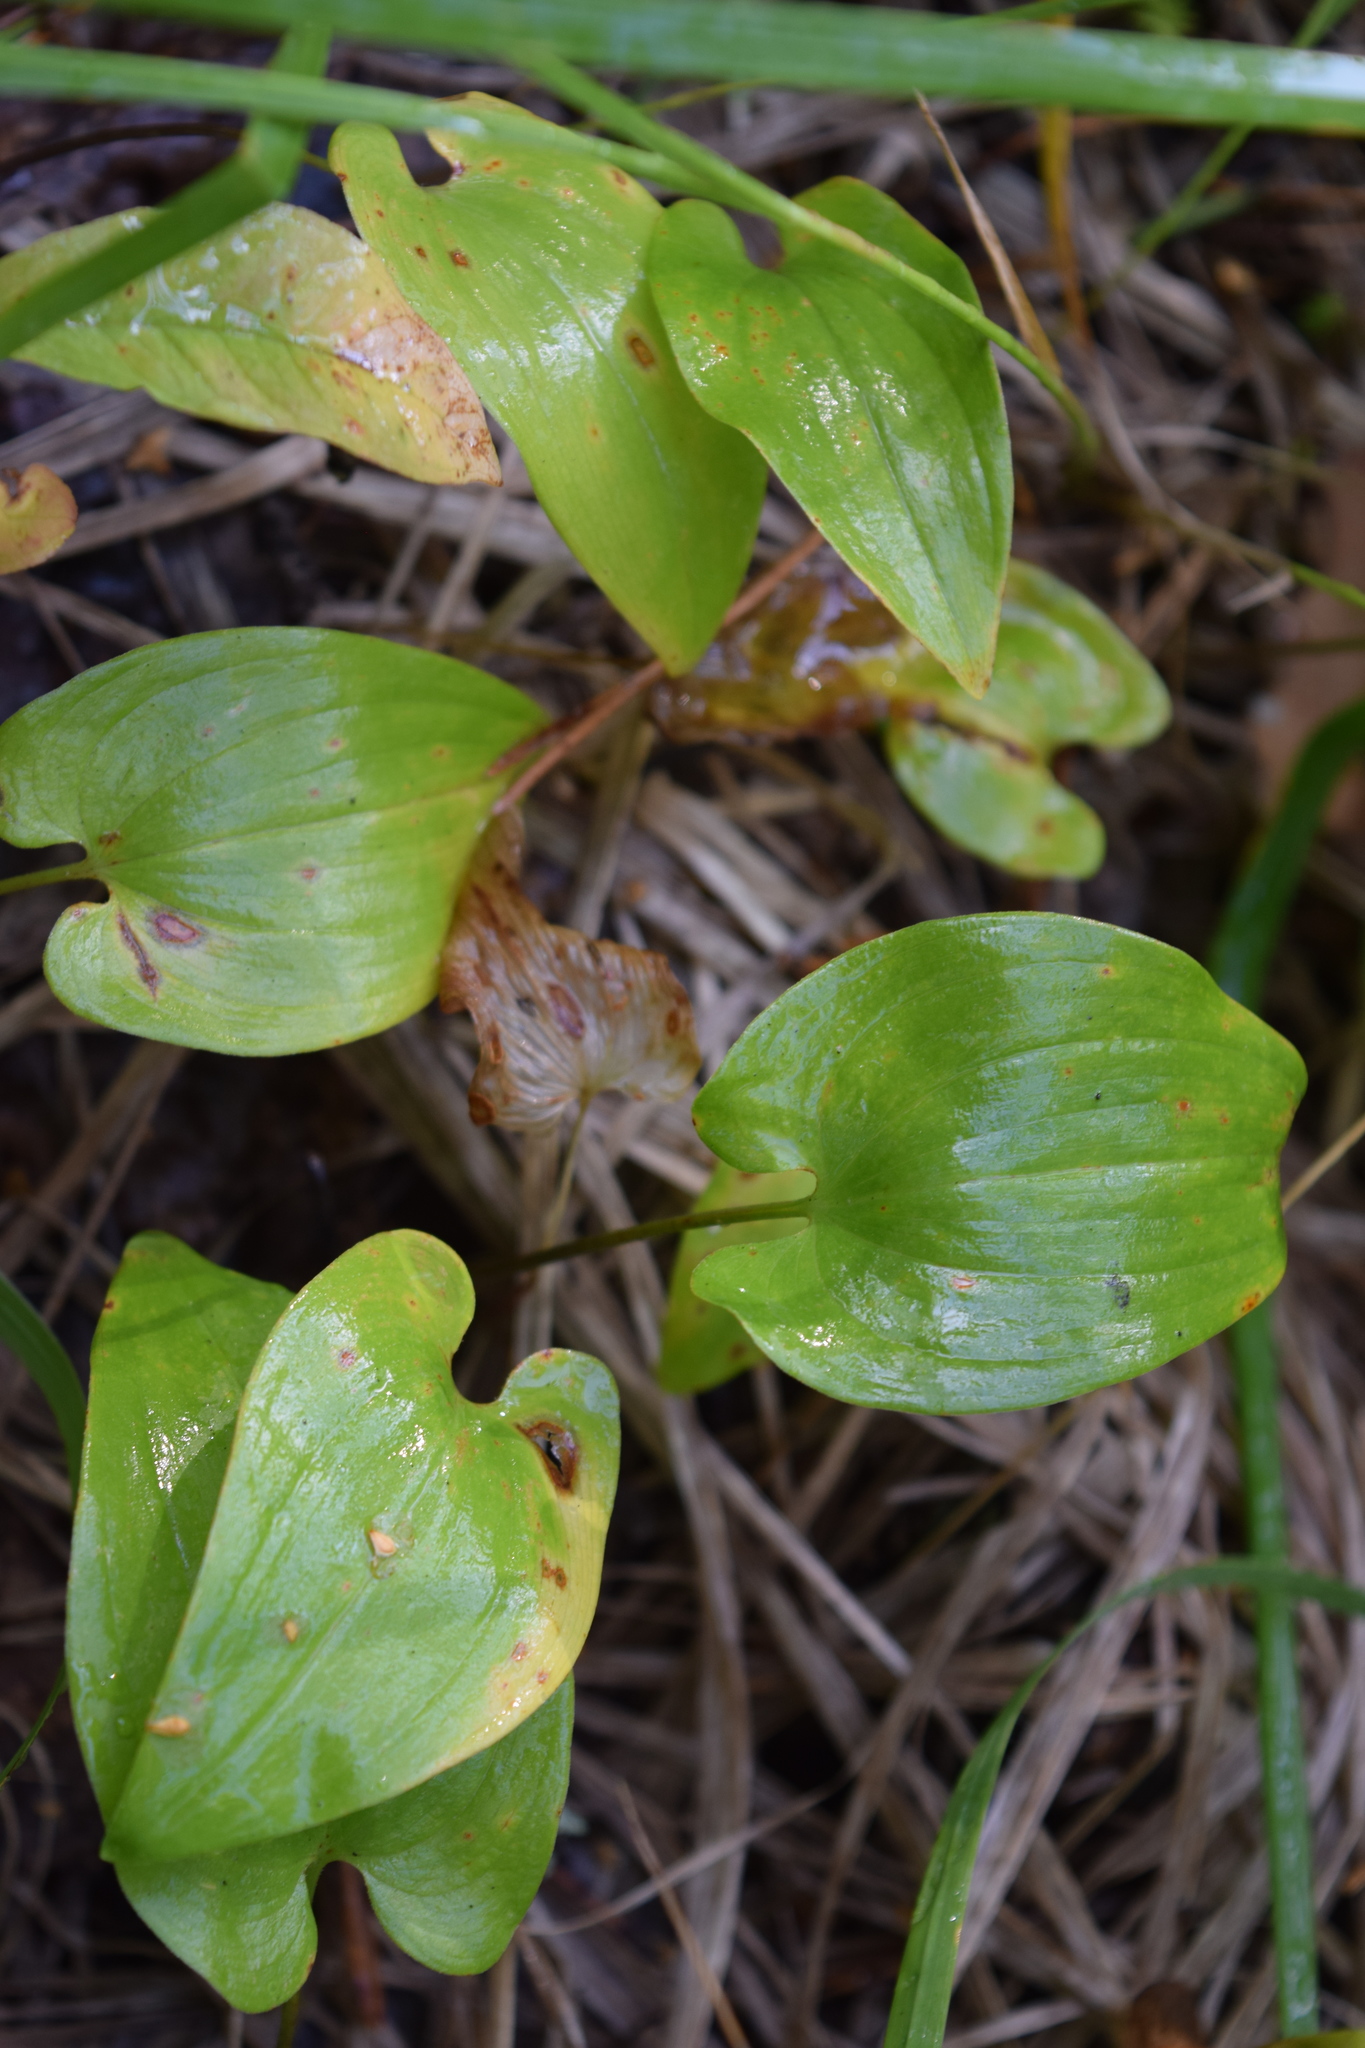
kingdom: Plantae
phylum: Tracheophyta
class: Liliopsida
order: Asparagales
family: Asparagaceae
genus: Maianthemum
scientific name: Maianthemum bifolium
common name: May lily
